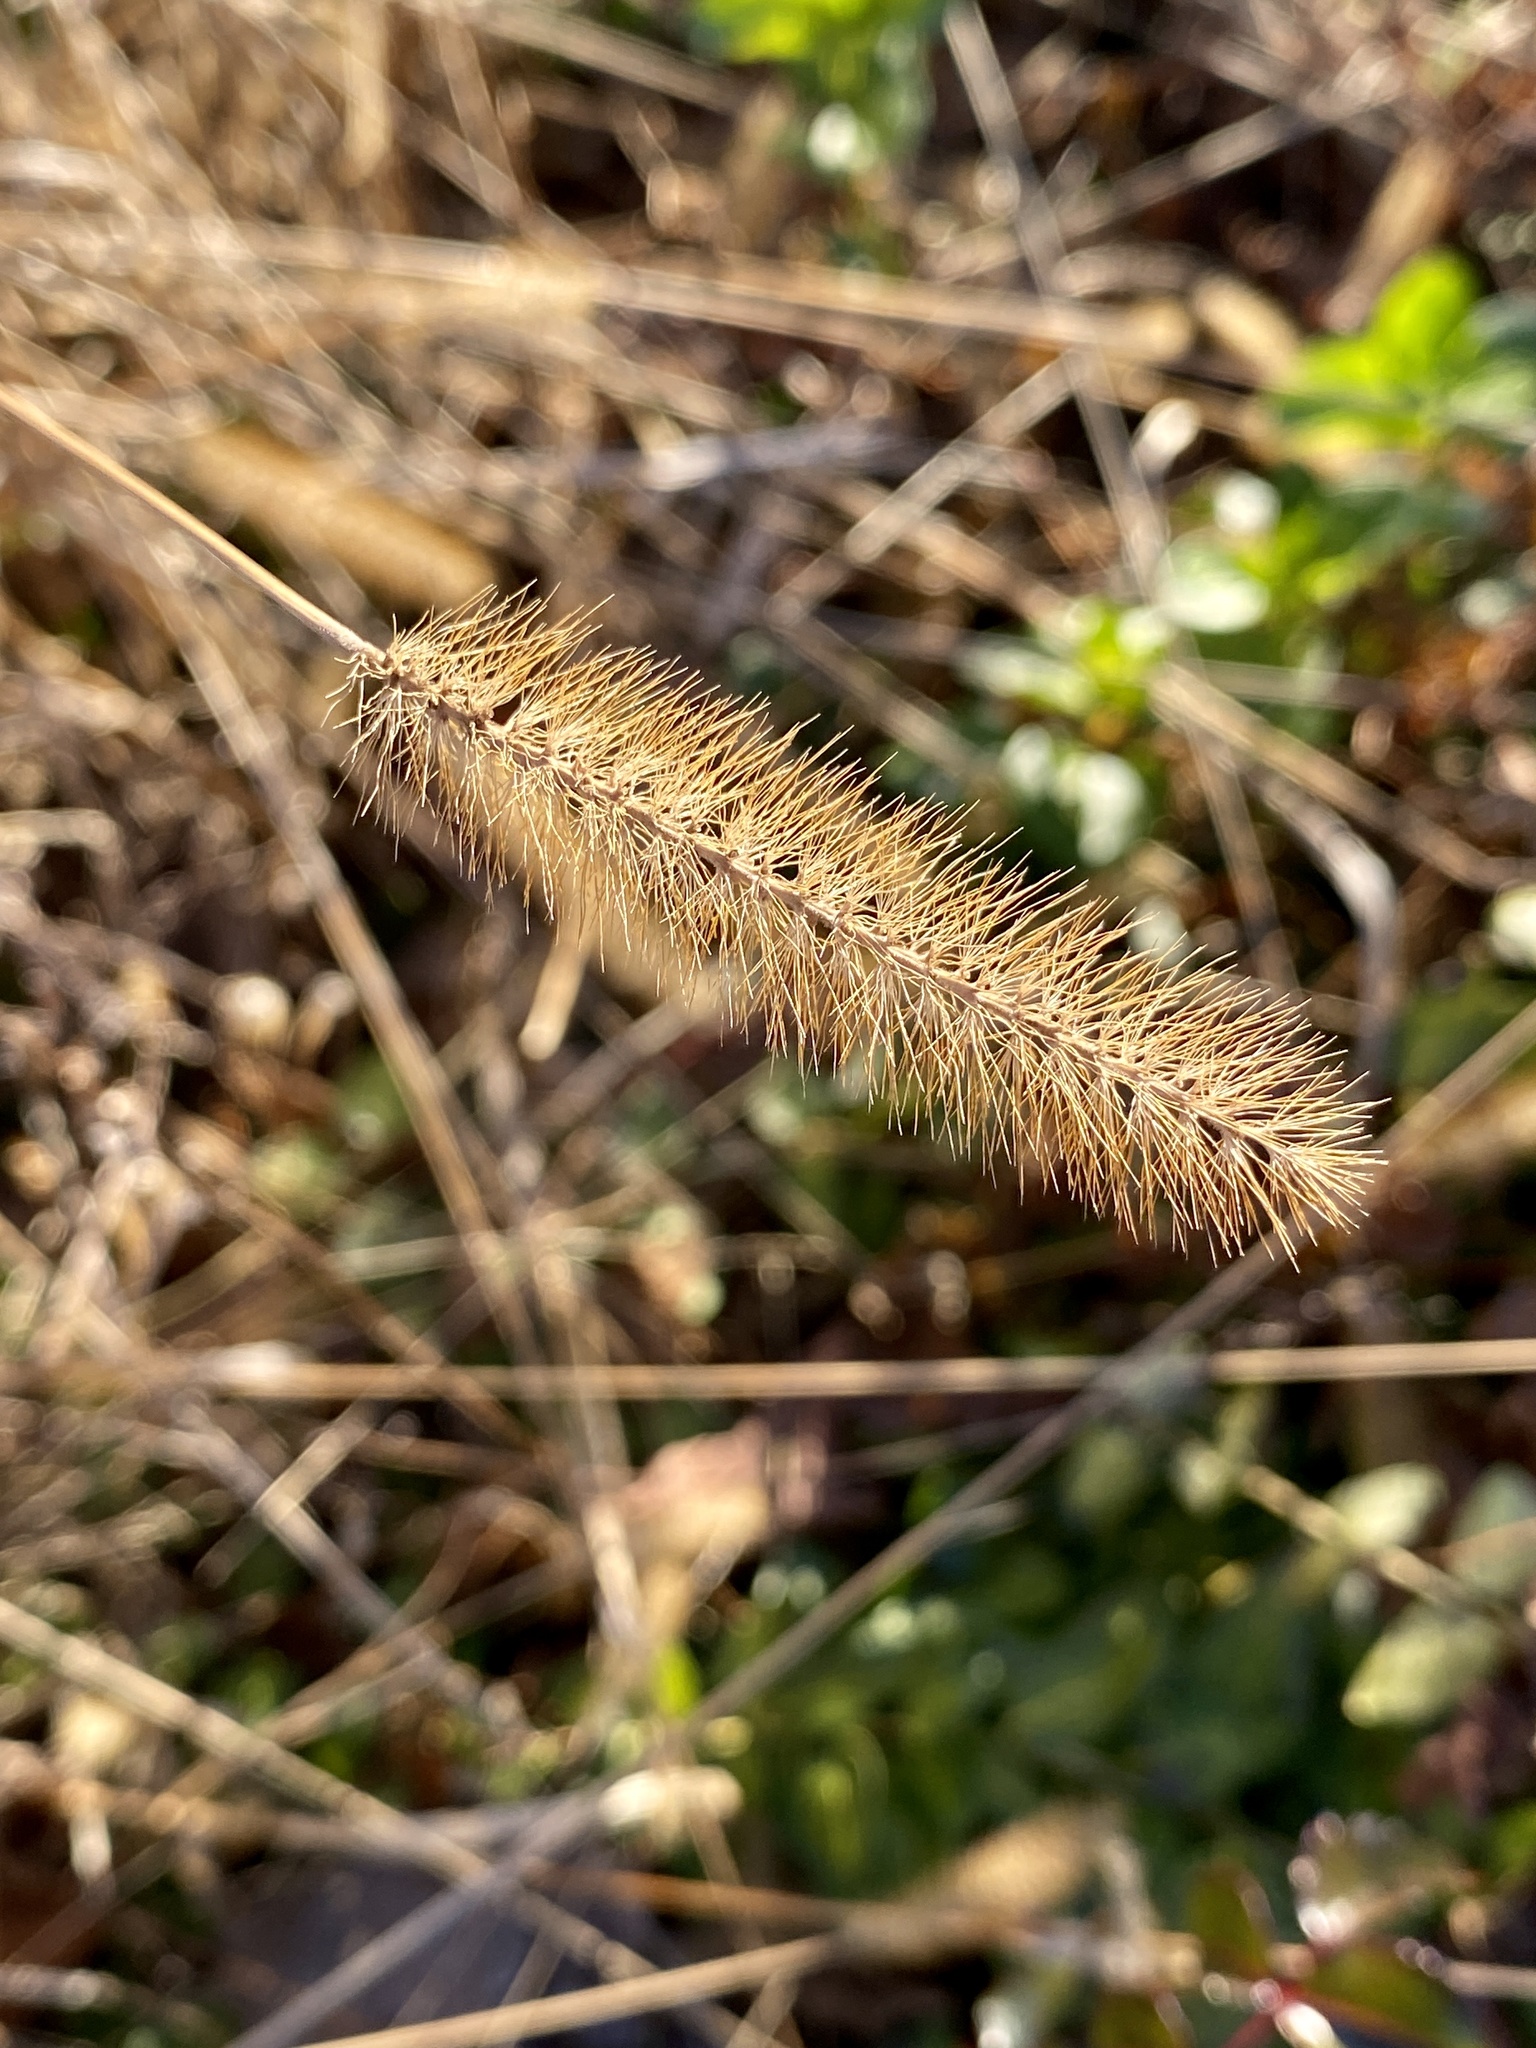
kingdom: Plantae
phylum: Tracheophyta
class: Liliopsida
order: Poales
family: Poaceae
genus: Setaria
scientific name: Setaria pumila
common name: Yellow bristle-grass
